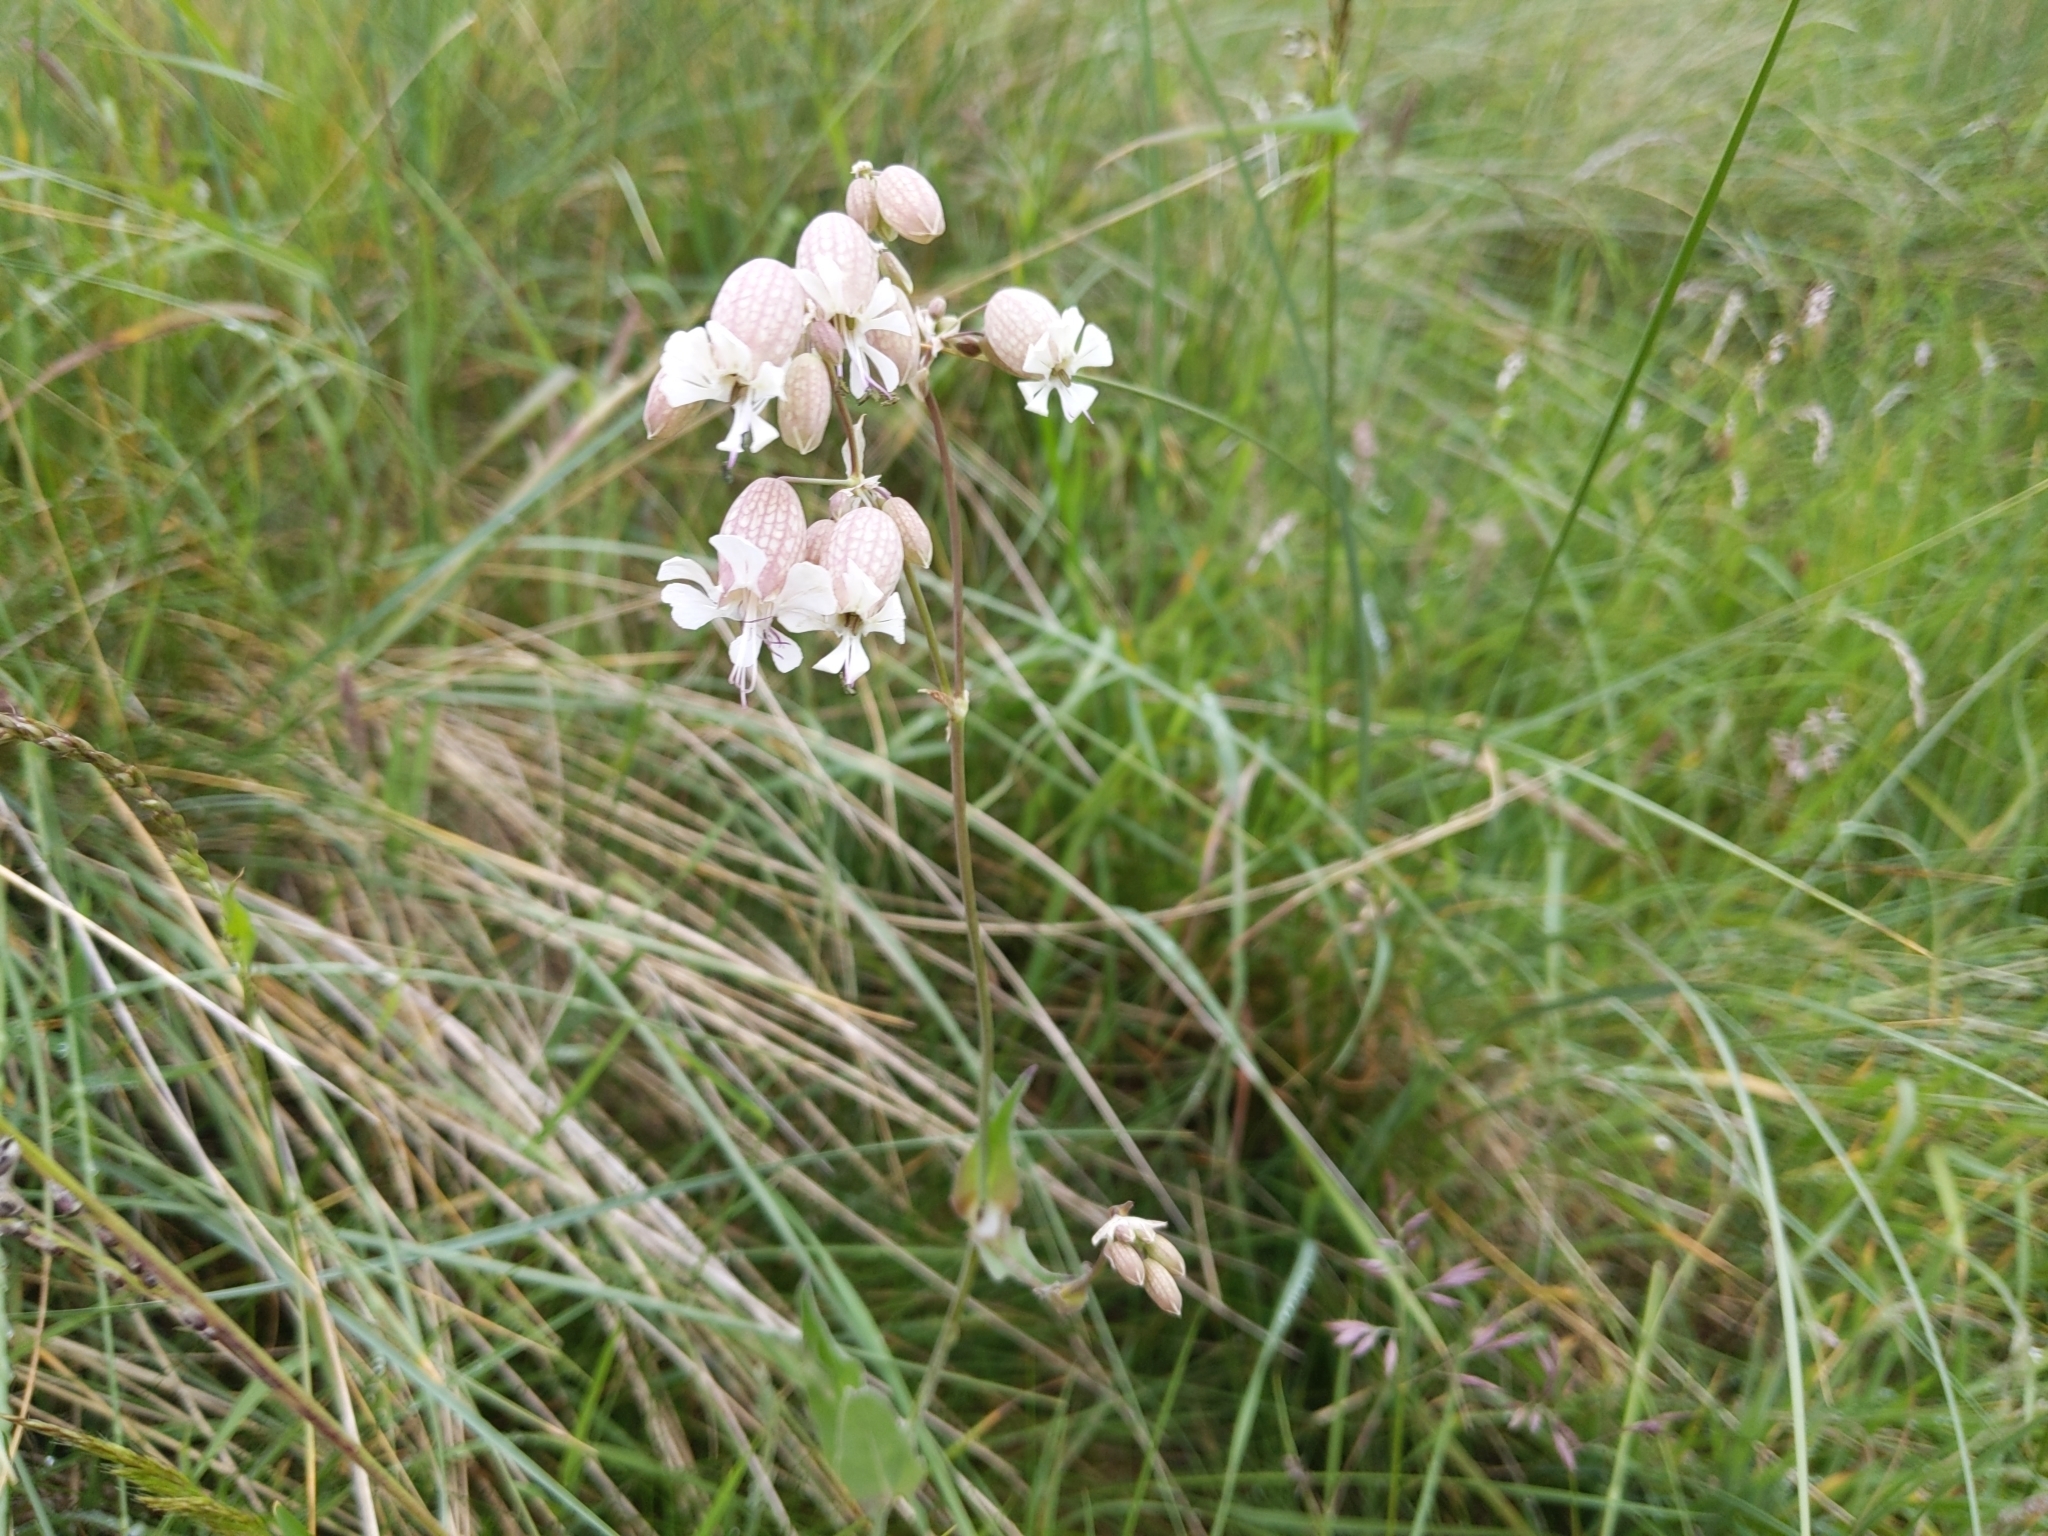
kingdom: Plantae
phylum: Tracheophyta
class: Magnoliopsida
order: Caryophyllales
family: Caryophyllaceae
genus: Silene
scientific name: Silene vulgaris
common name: Bladder campion
